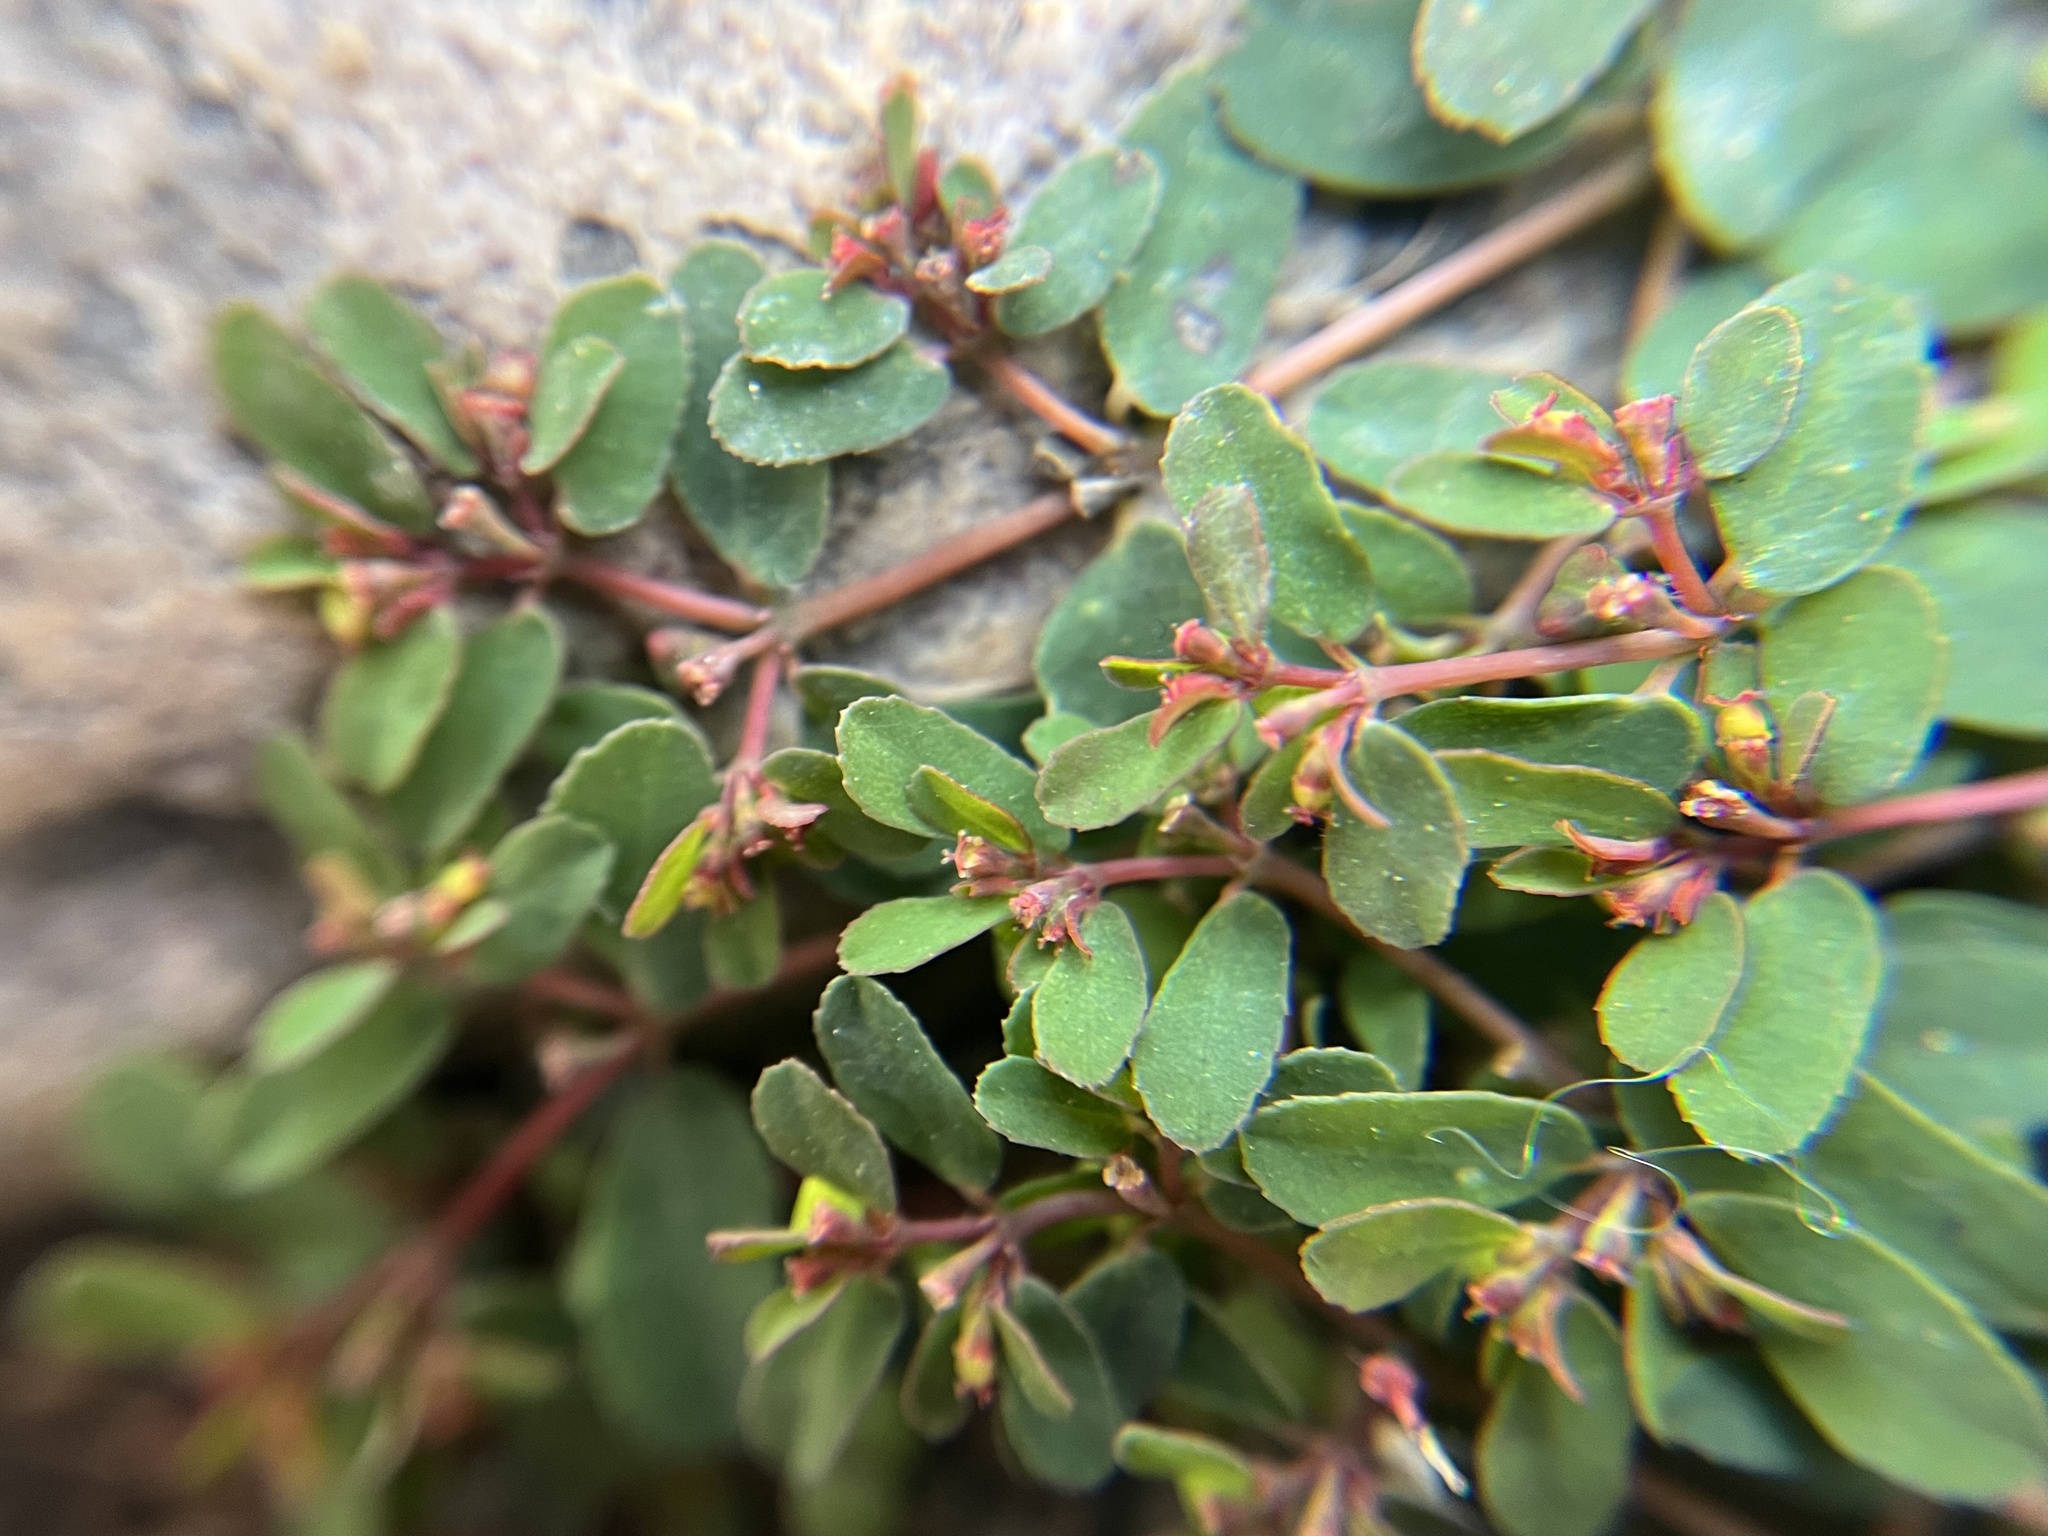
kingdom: Plantae
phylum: Tracheophyta
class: Magnoliopsida
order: Malpighiales
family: Euphorbiaceae
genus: Euphorbia
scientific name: Euphorbia humifusa
